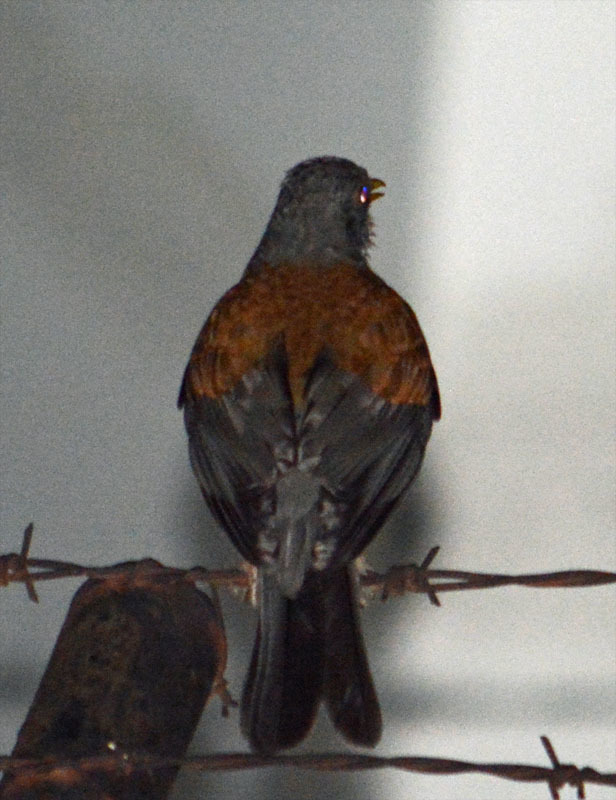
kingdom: Animalia
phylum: Chordata
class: Aves
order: Passeriformes
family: Turdidae
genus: Turdus
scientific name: Turdus rufopalliatus
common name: Rufous-backed robin
